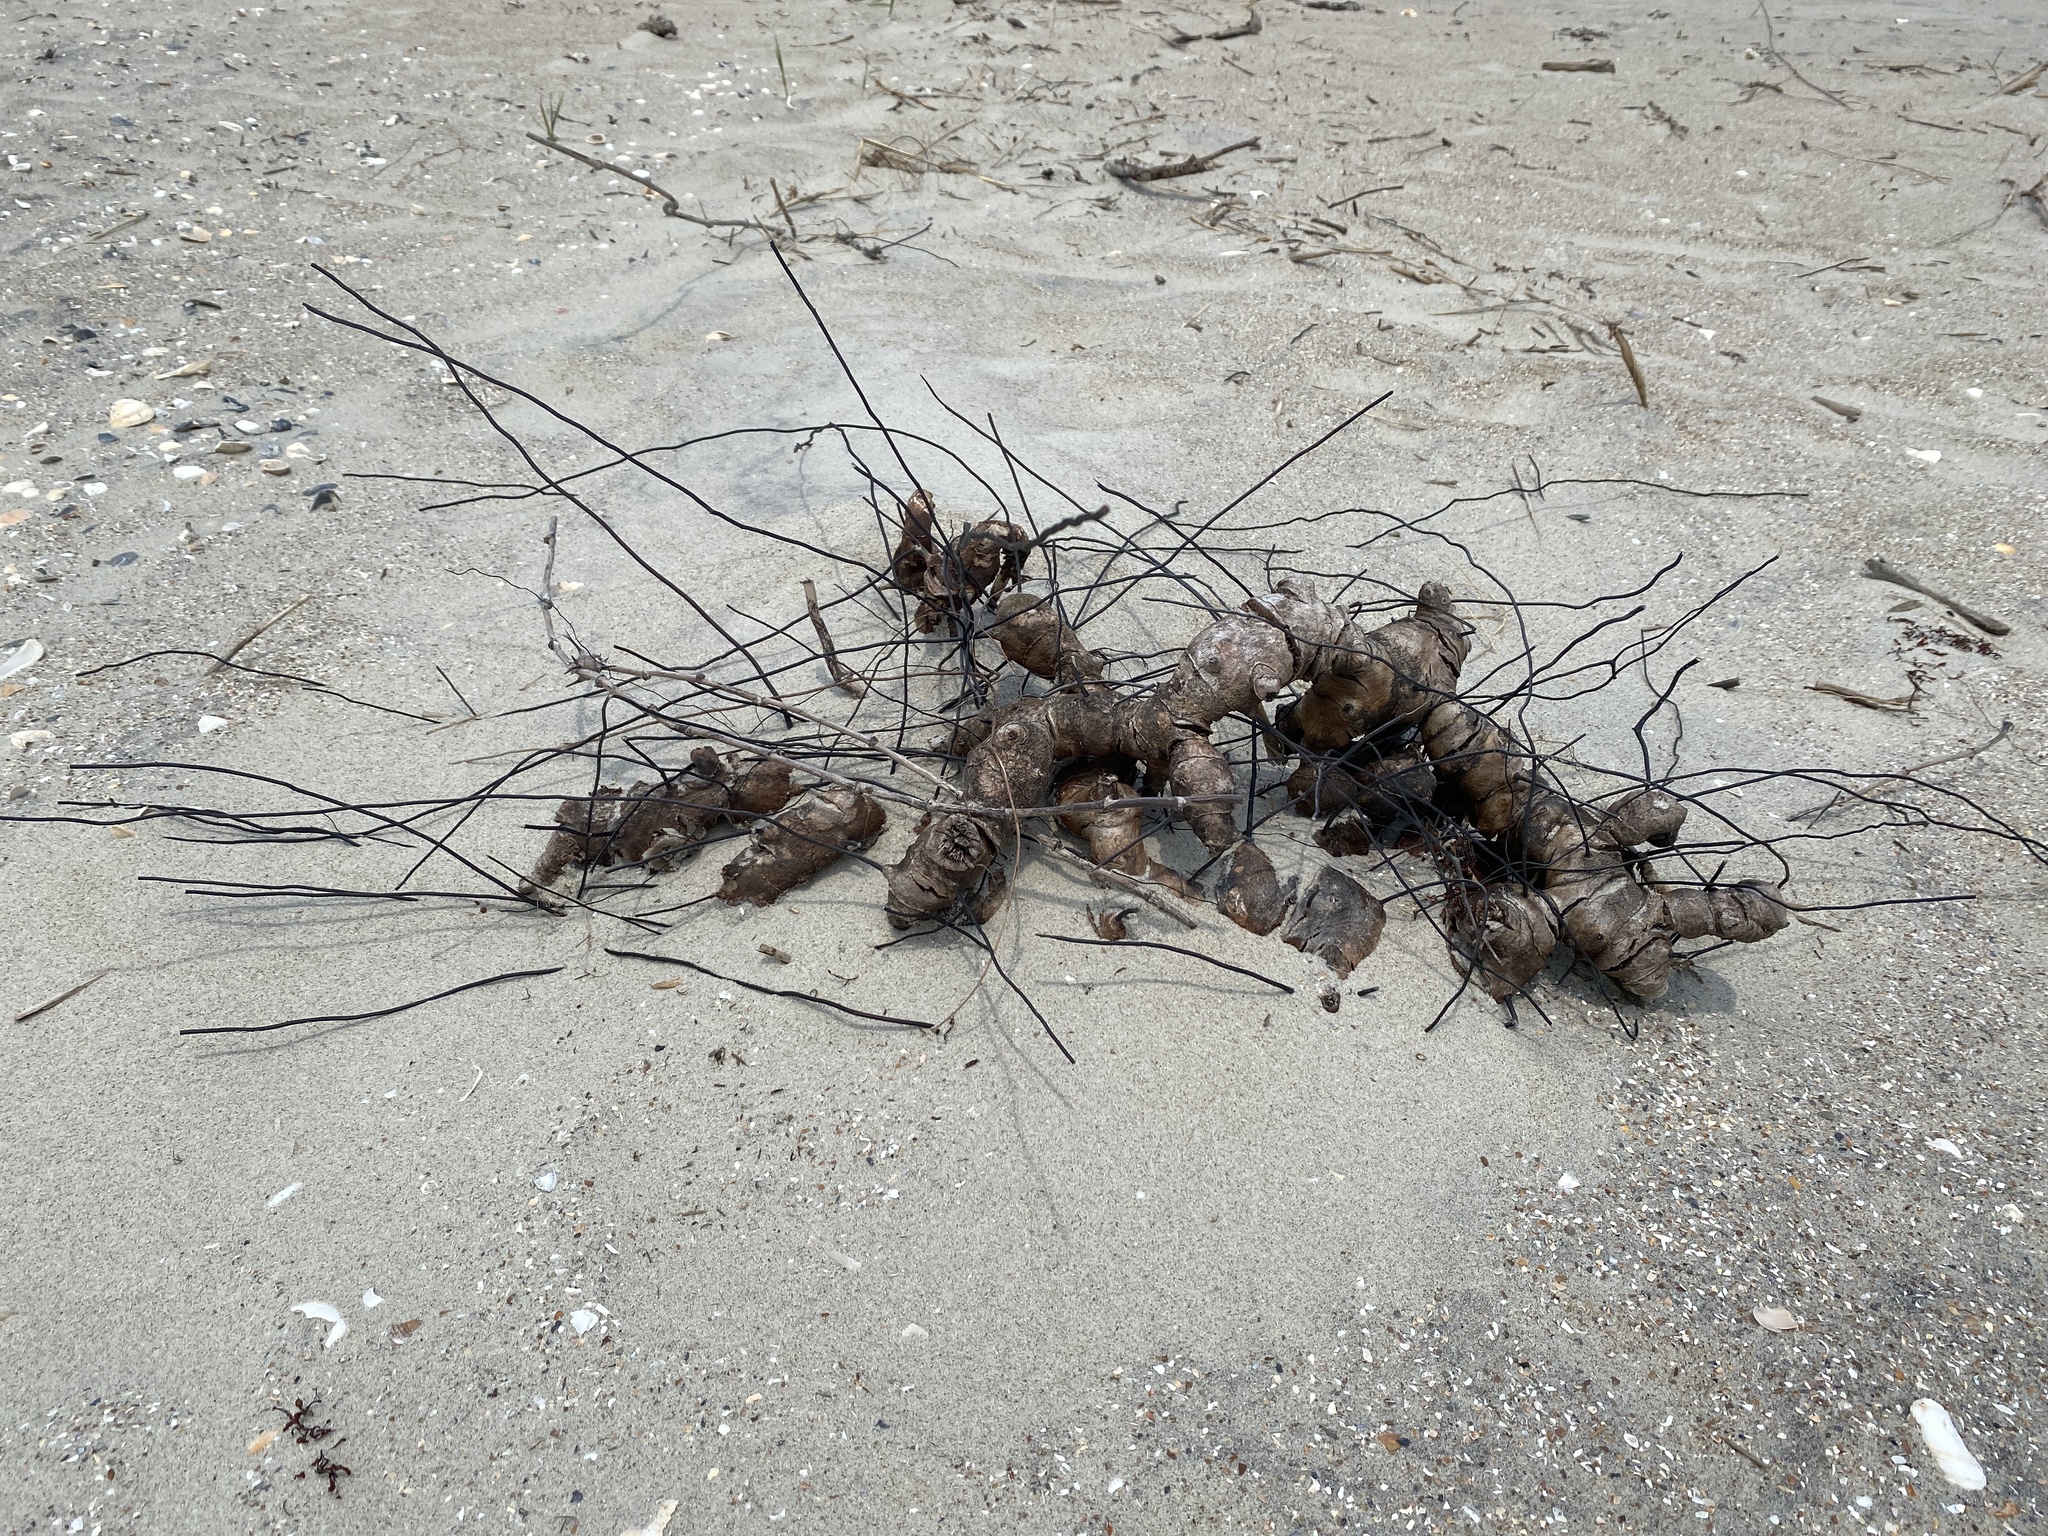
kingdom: Plantae
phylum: Tracheophyta
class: Liliopsida
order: Liliales
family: Smilacaceae
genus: Smilax
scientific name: Smilax auriculata
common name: Wild bamboo
